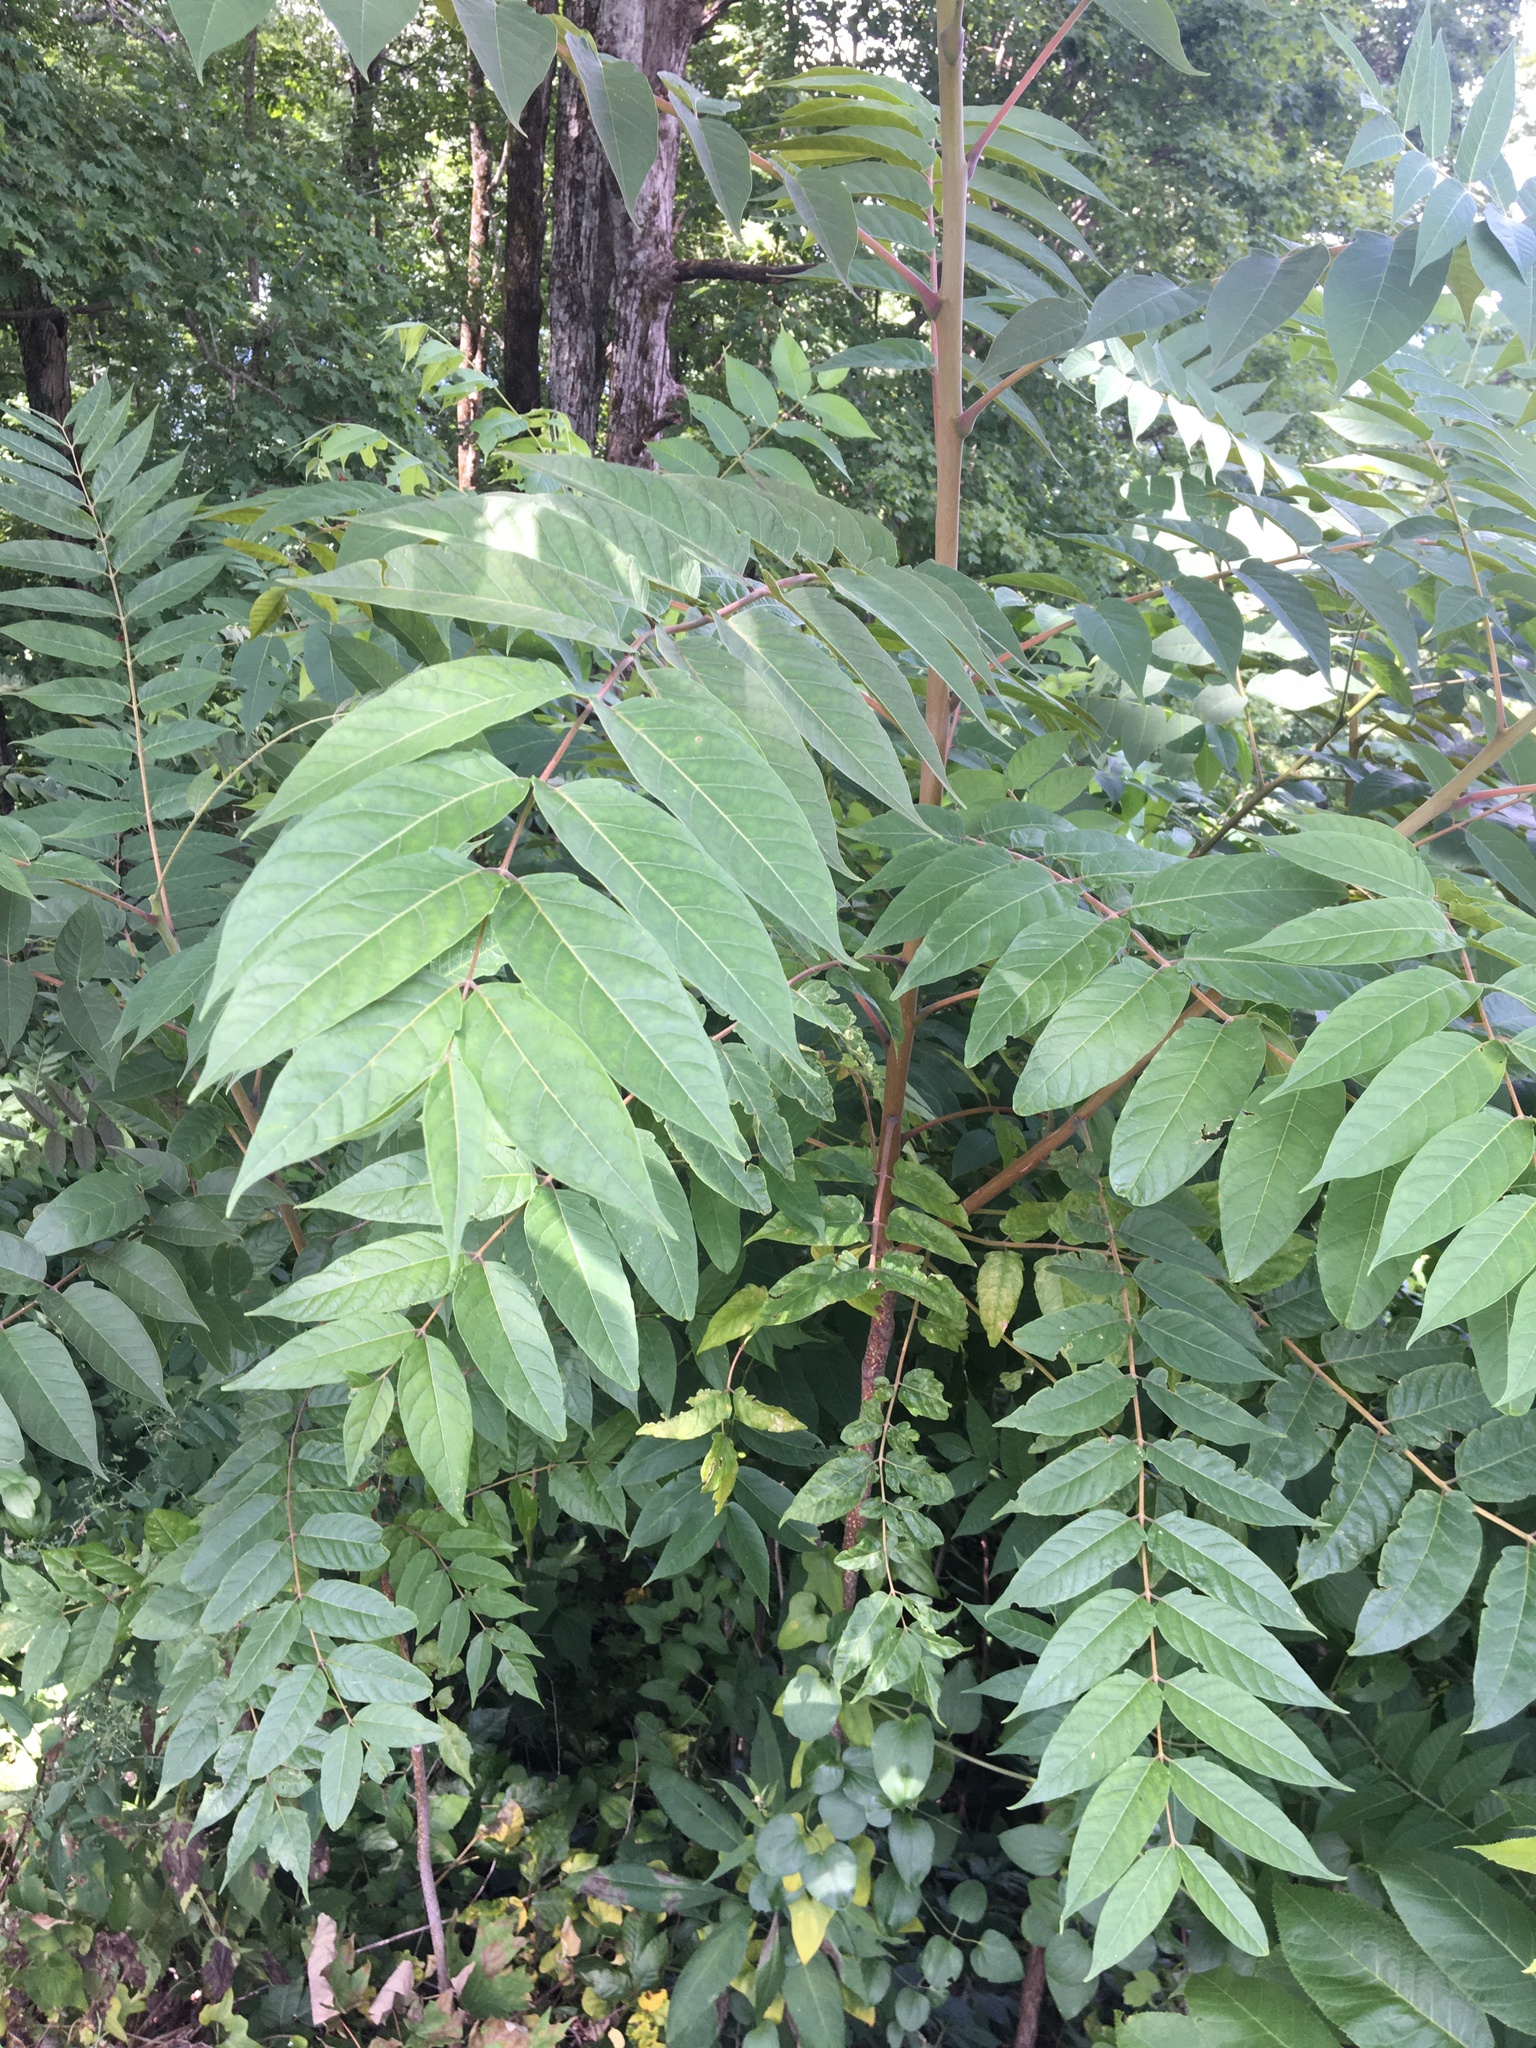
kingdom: Plantae
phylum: Tracheophyta
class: Magnoliopsida
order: Sapindales
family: Simaroubaceae
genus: Ailanthus
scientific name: Ailanthus altissima
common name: Tree-of-heaven
